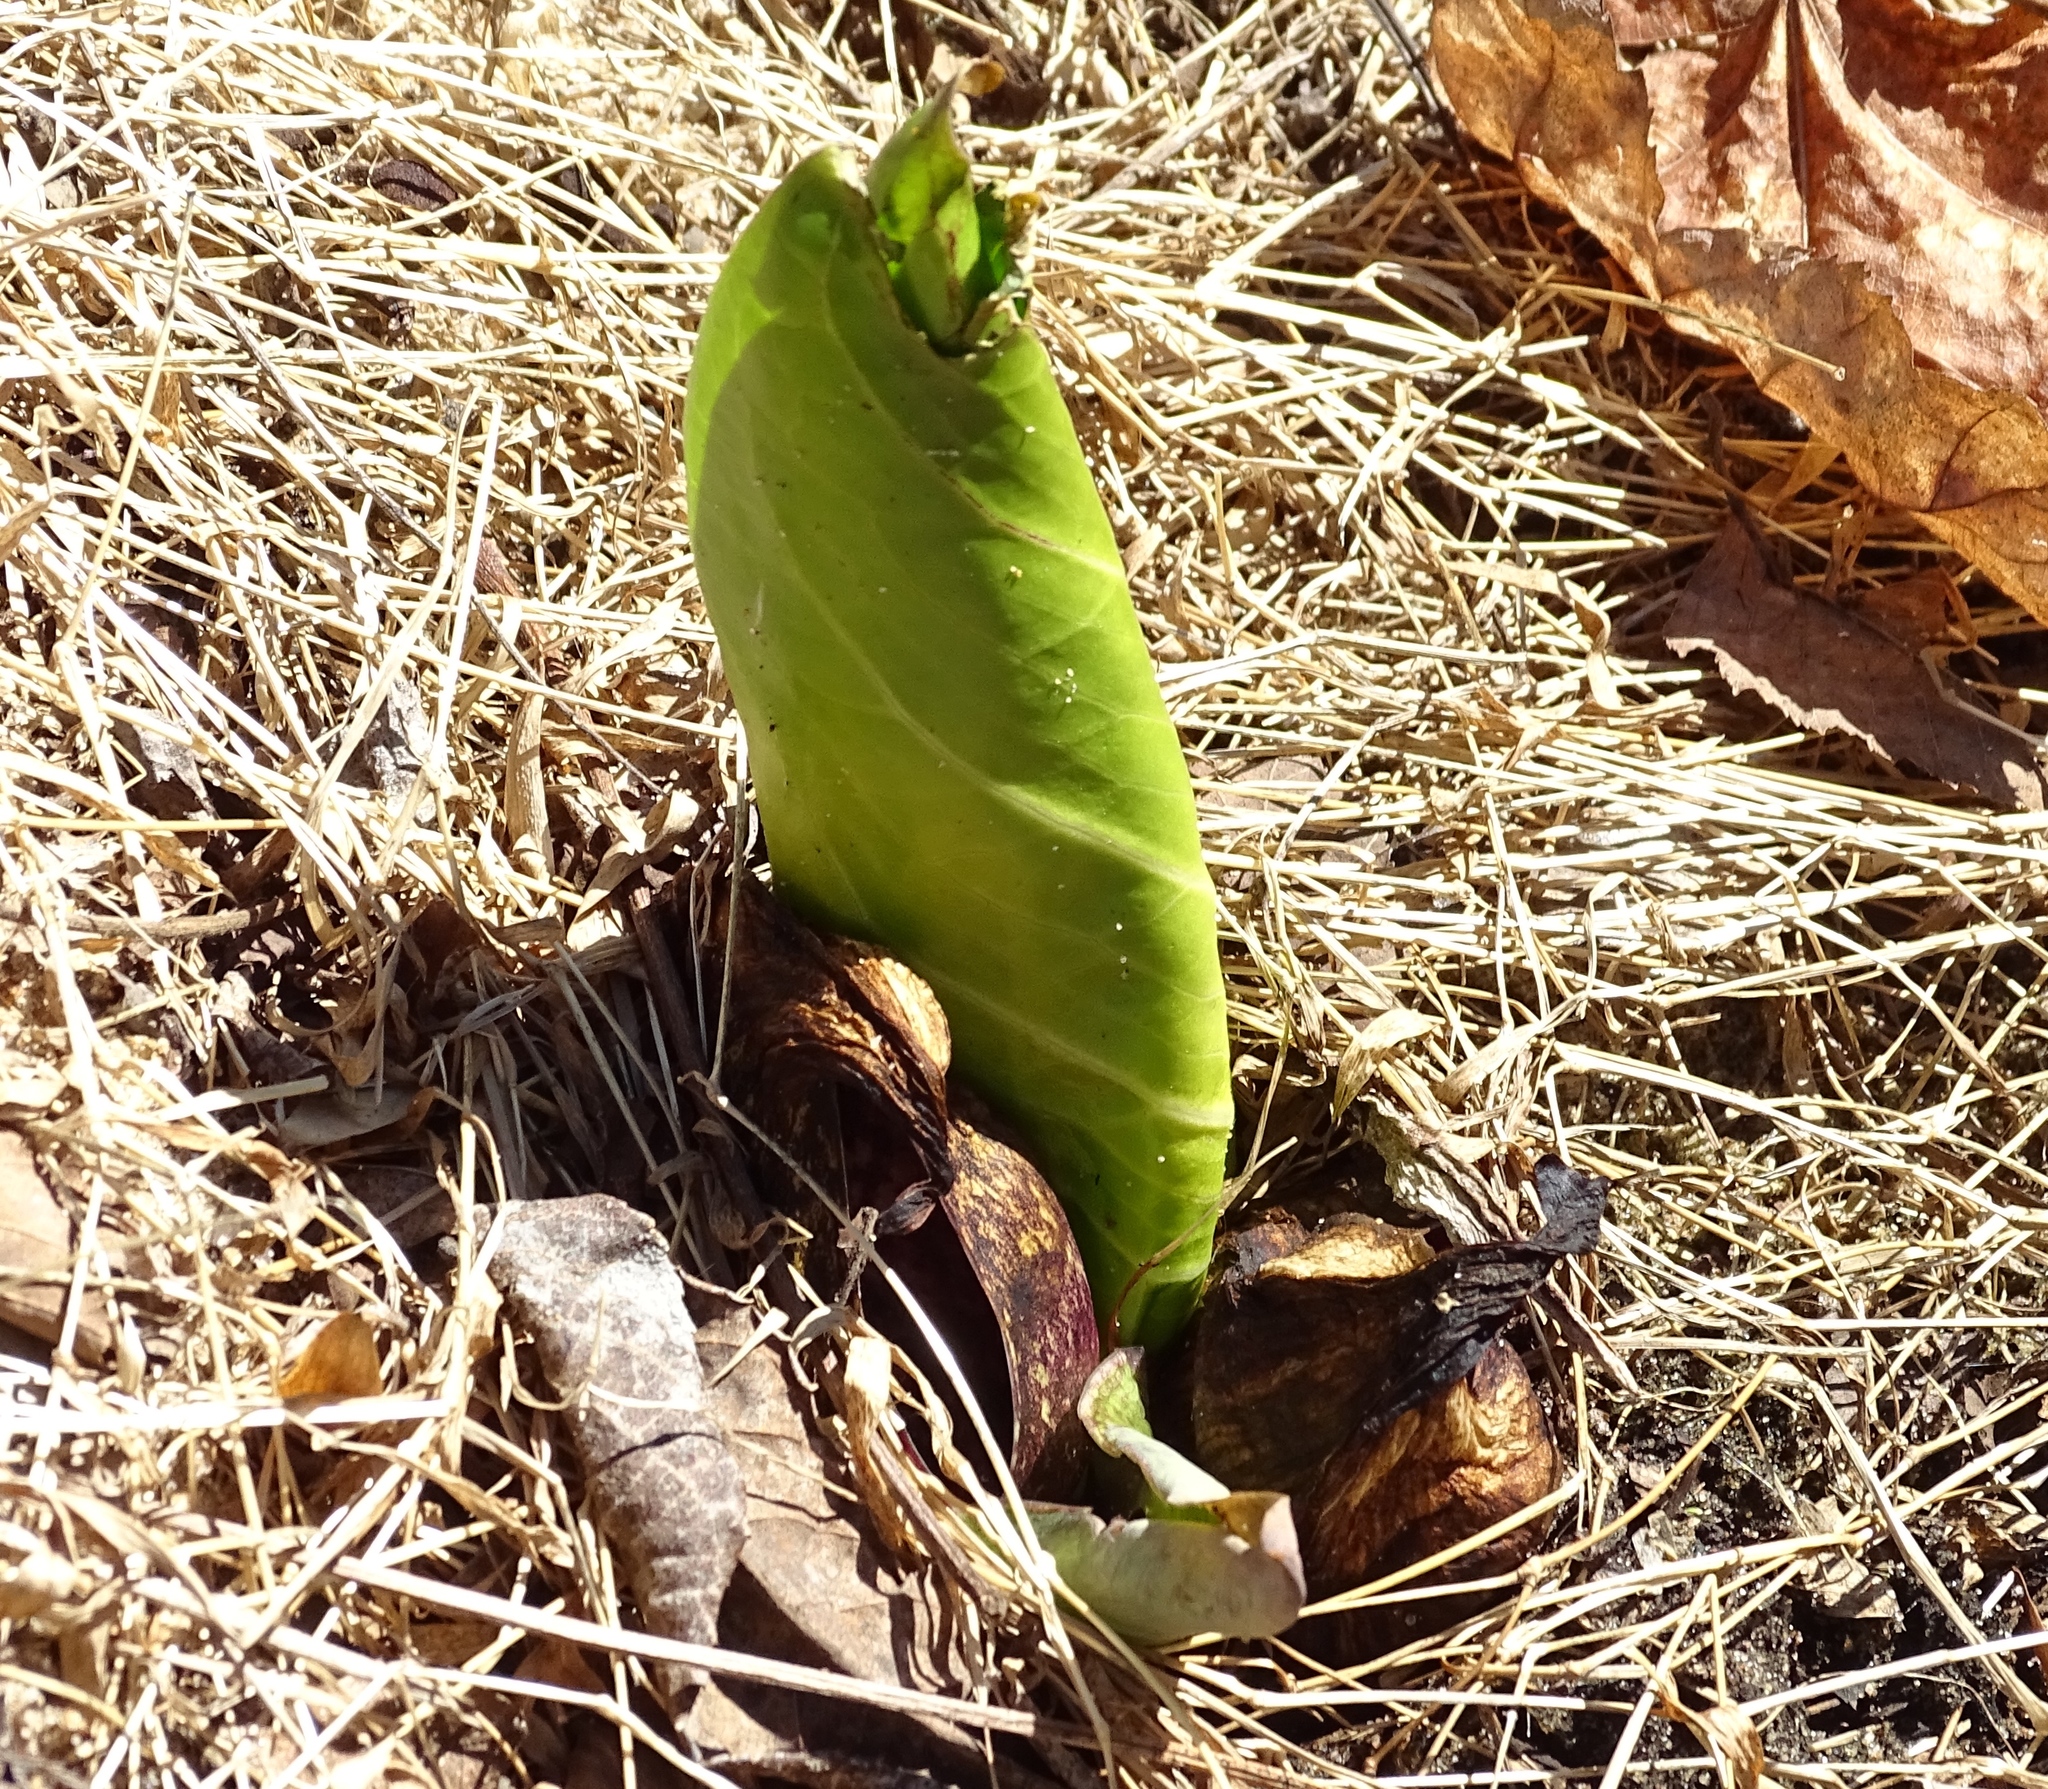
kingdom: Plantae
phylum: Tracheophyta
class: Liliopsida
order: Alismatales
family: Araceae
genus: Symplocarpus
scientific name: Symplocarpus foetidus
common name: Eastern skunk cabbage
